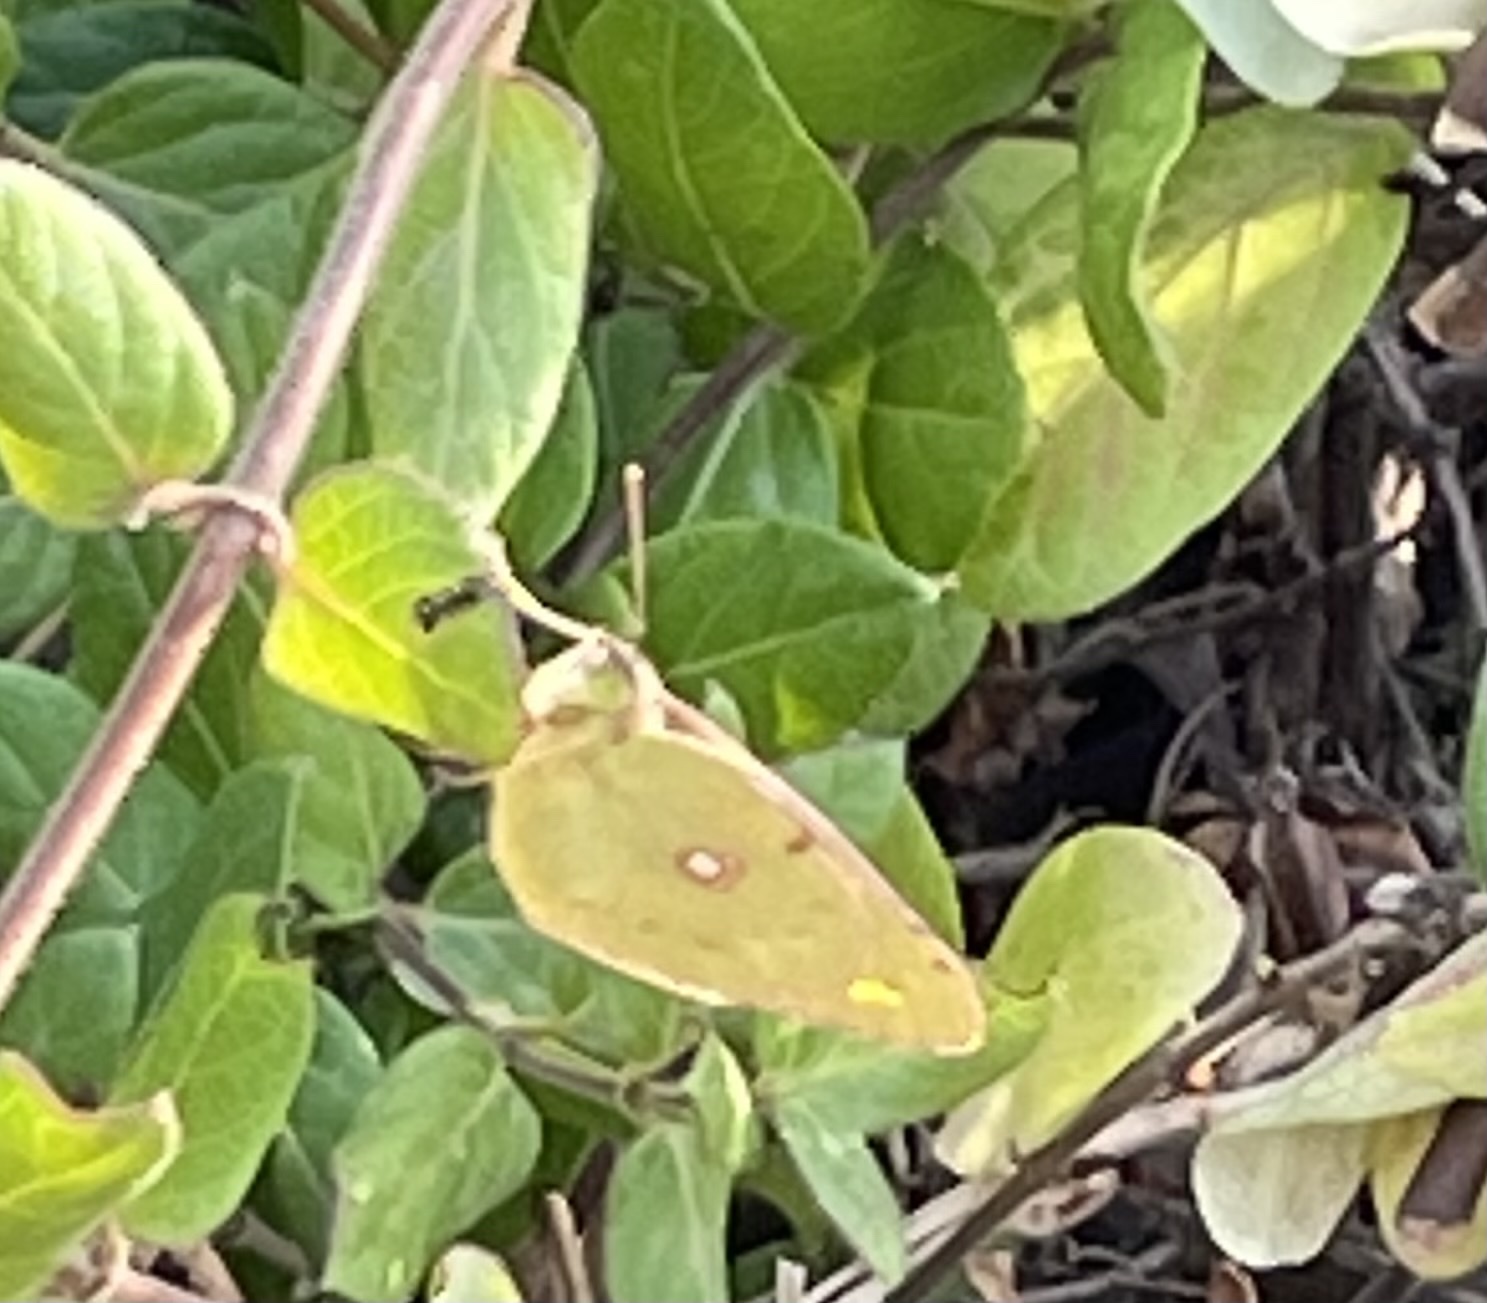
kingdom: Animalia
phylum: Arthropoda
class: Insecta
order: Lepidoptera
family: Pieridae
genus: Colias
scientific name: Colias croceus
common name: Clouded yellow
